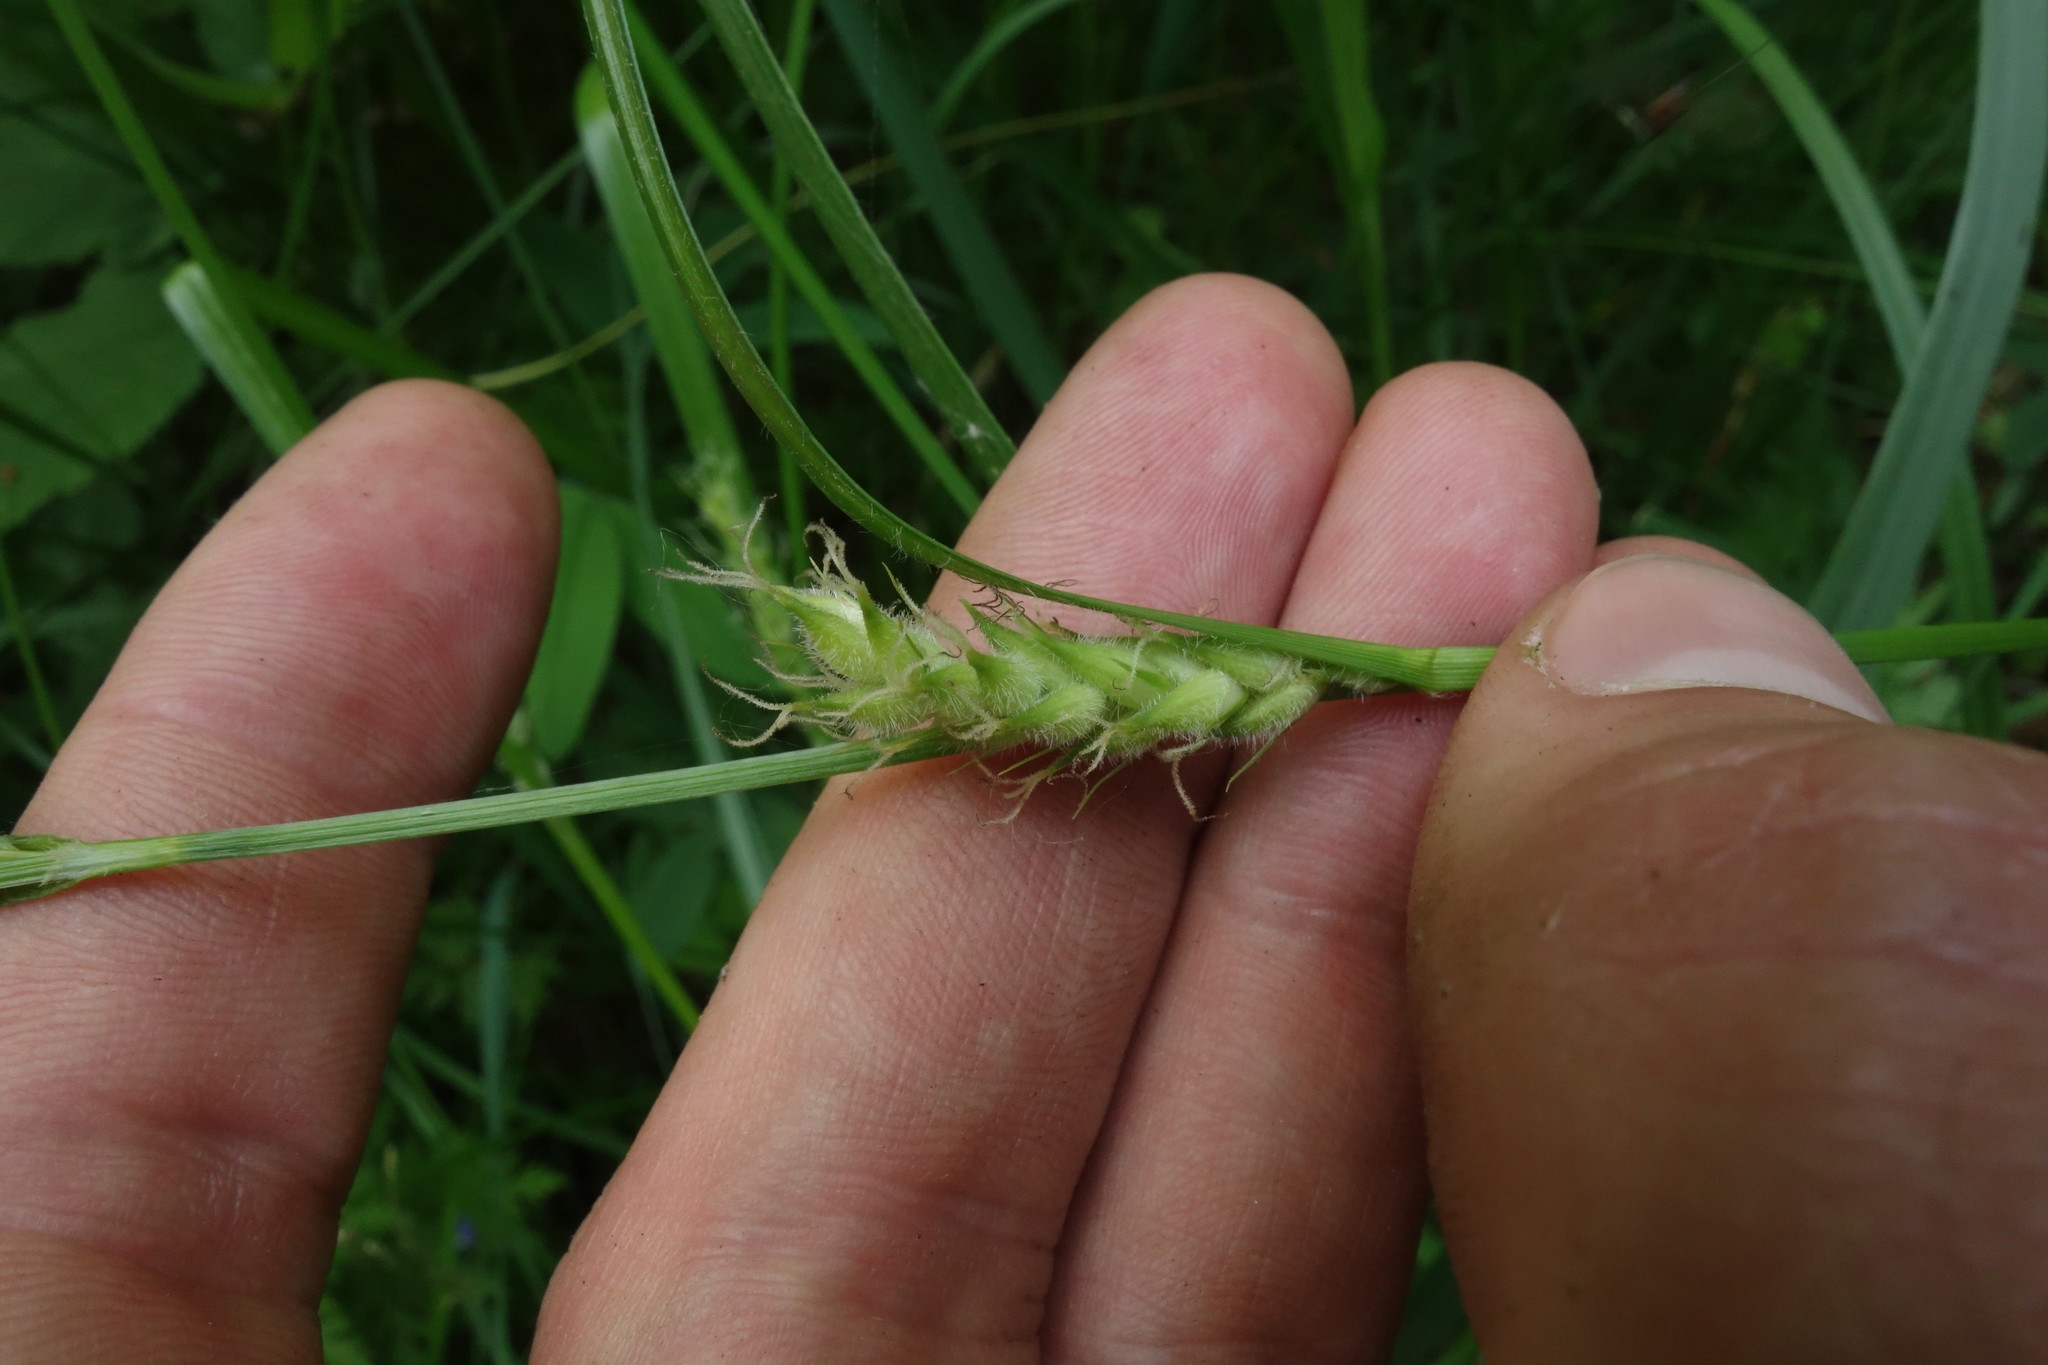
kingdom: Plantae
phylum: Tracheophyta
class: Liliopsida
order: Poales
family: Cyperaceae
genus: Carex
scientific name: Carex hirta
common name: Hairy sedge
